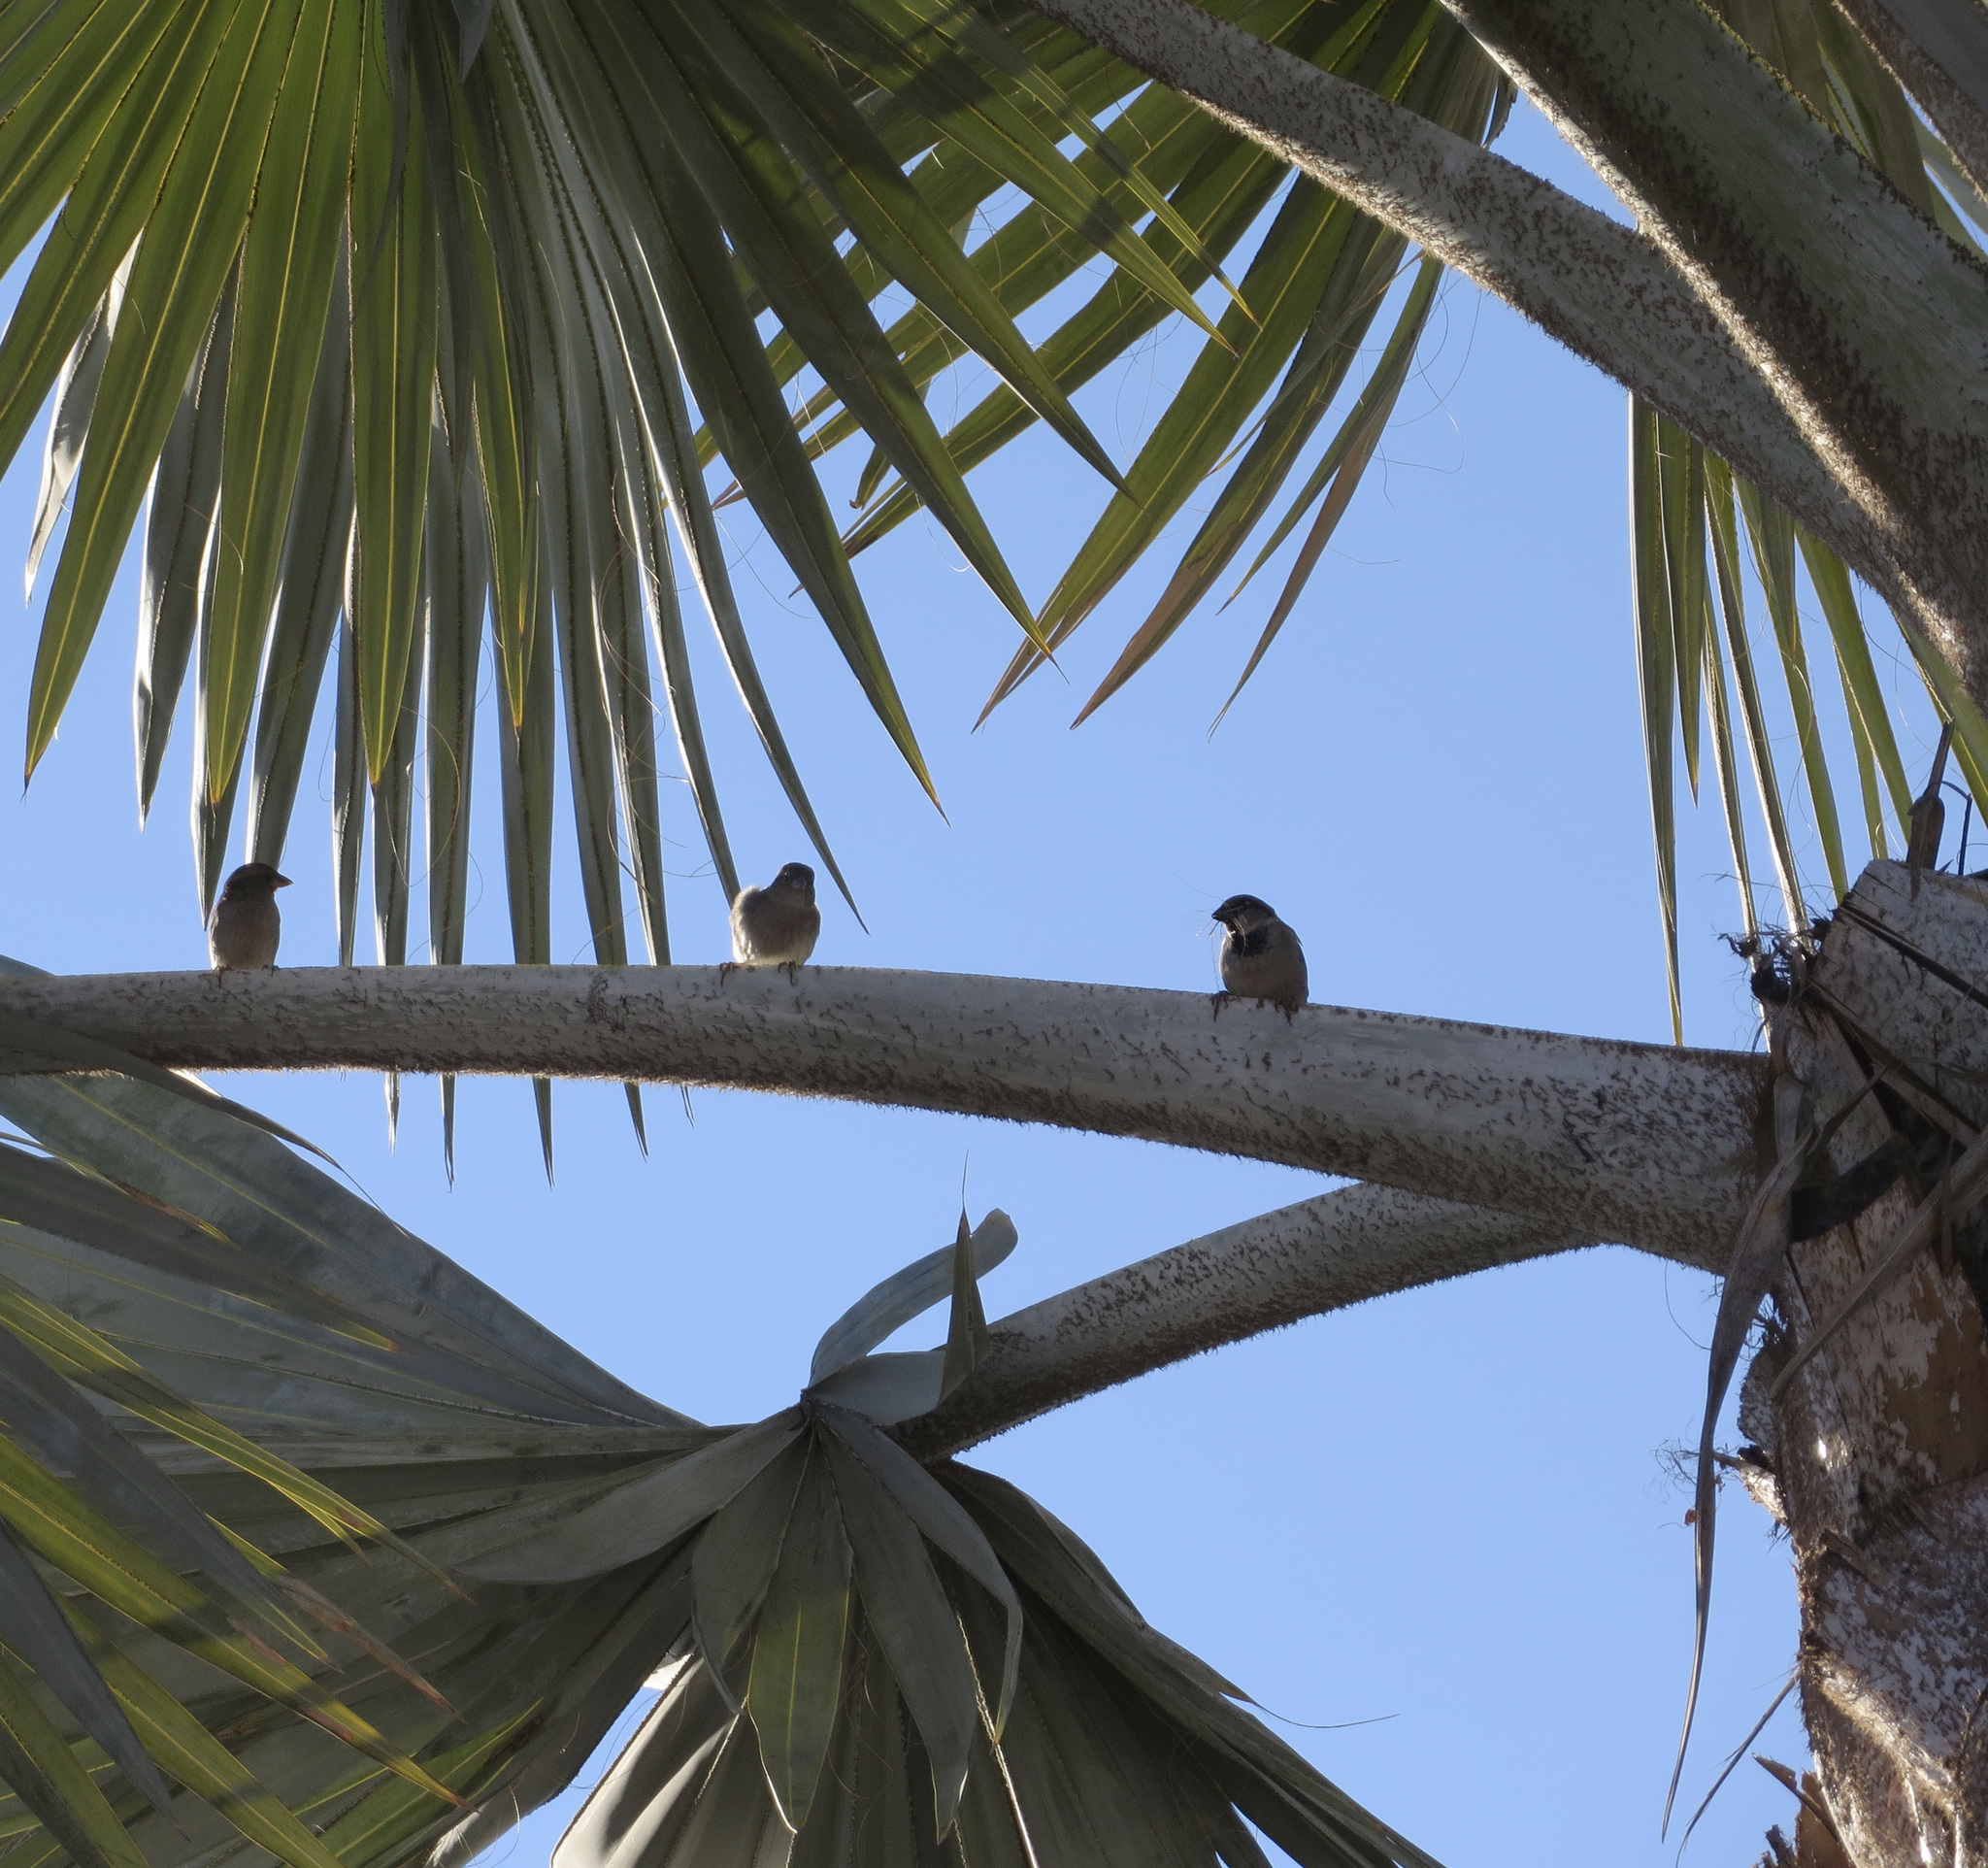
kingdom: Animalia
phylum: Chordata
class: Aves
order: Passeriformes
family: Passeridae
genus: Passer
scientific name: Passer domesticus
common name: House sparrow
